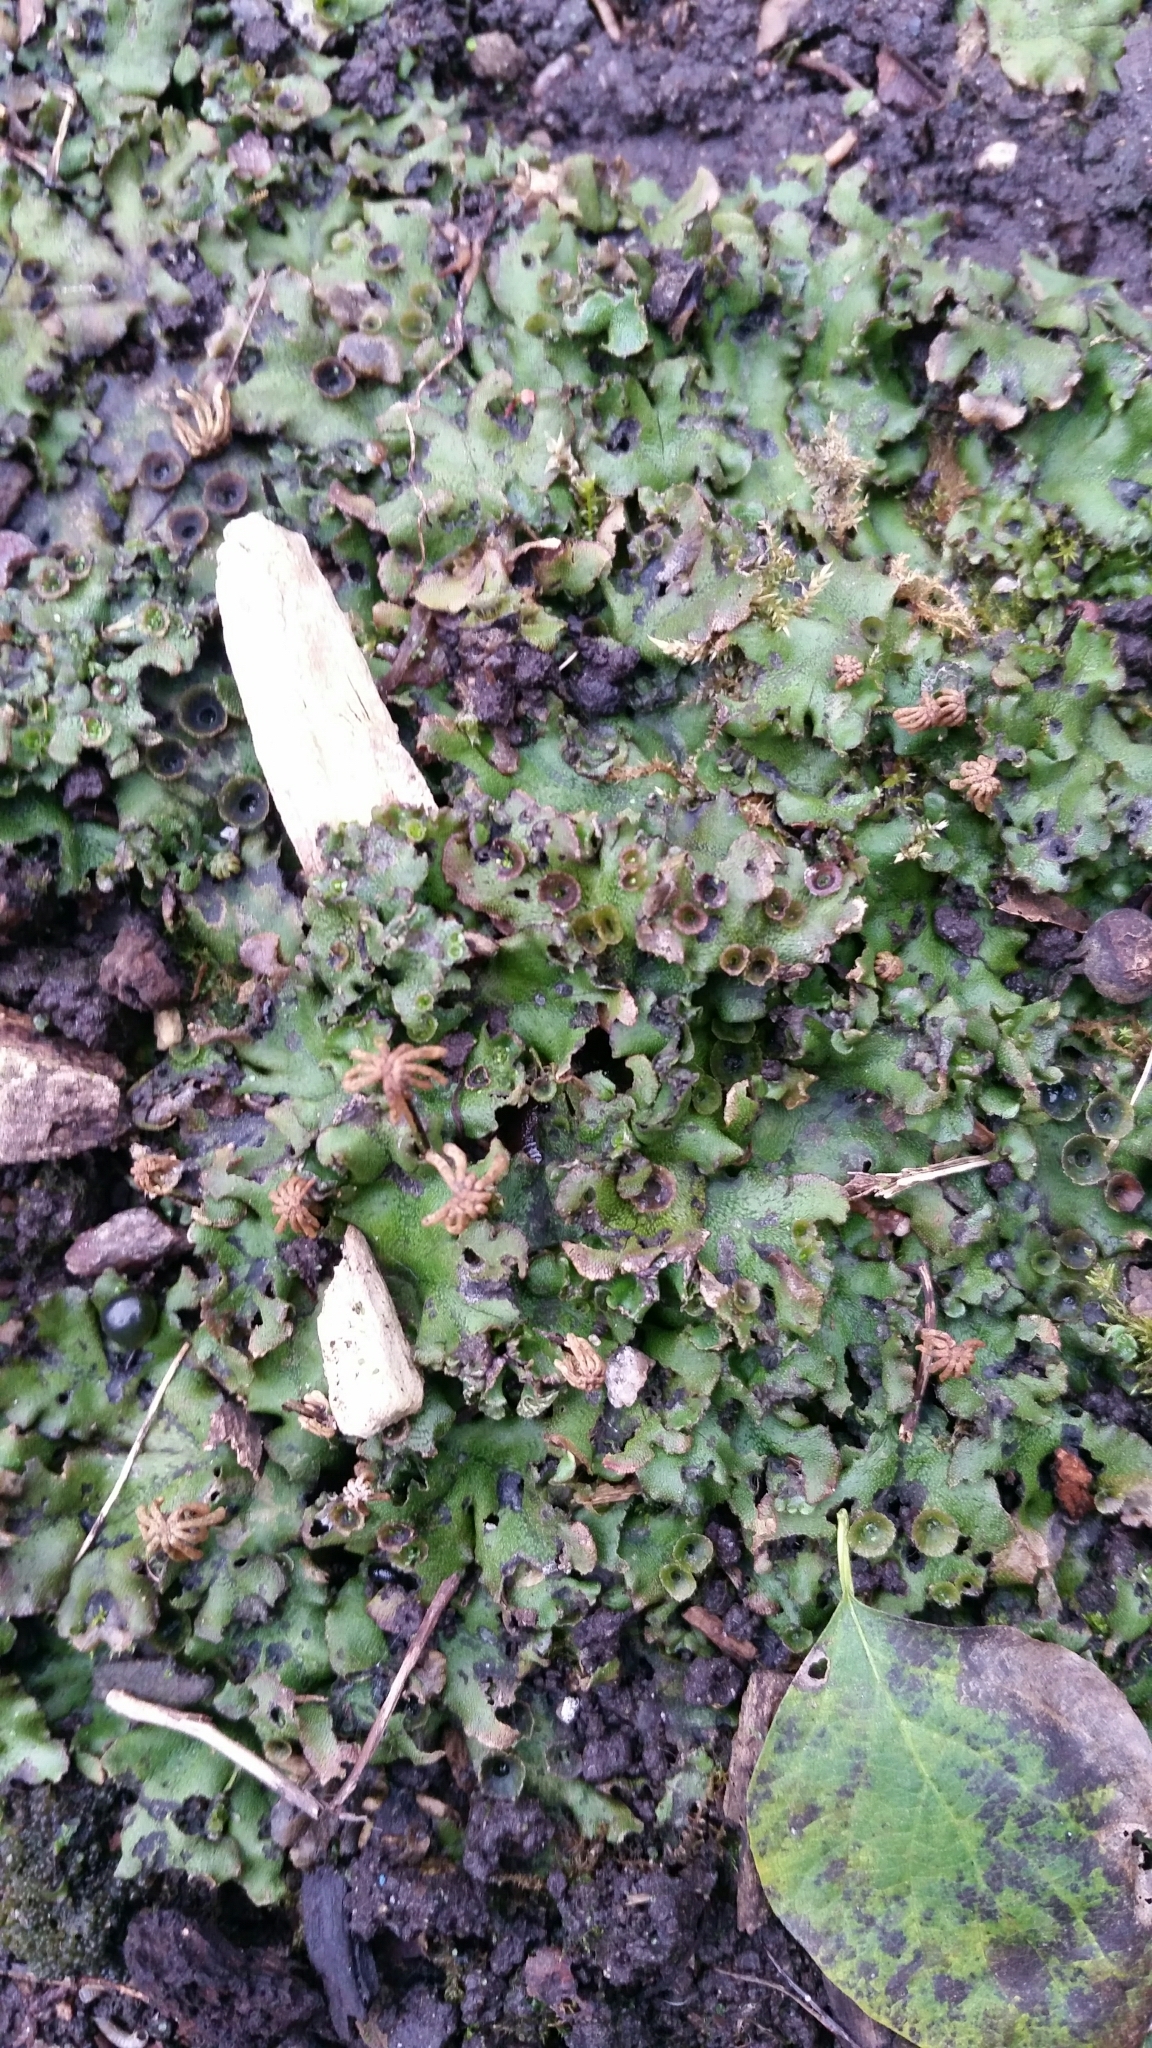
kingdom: Plantae
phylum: Marchantiophyta
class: Marchantiopsida
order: Marchantiales
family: Marchantiaceae
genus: Marchantia
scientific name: Marchantia polymorpha
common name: Common liverwort
